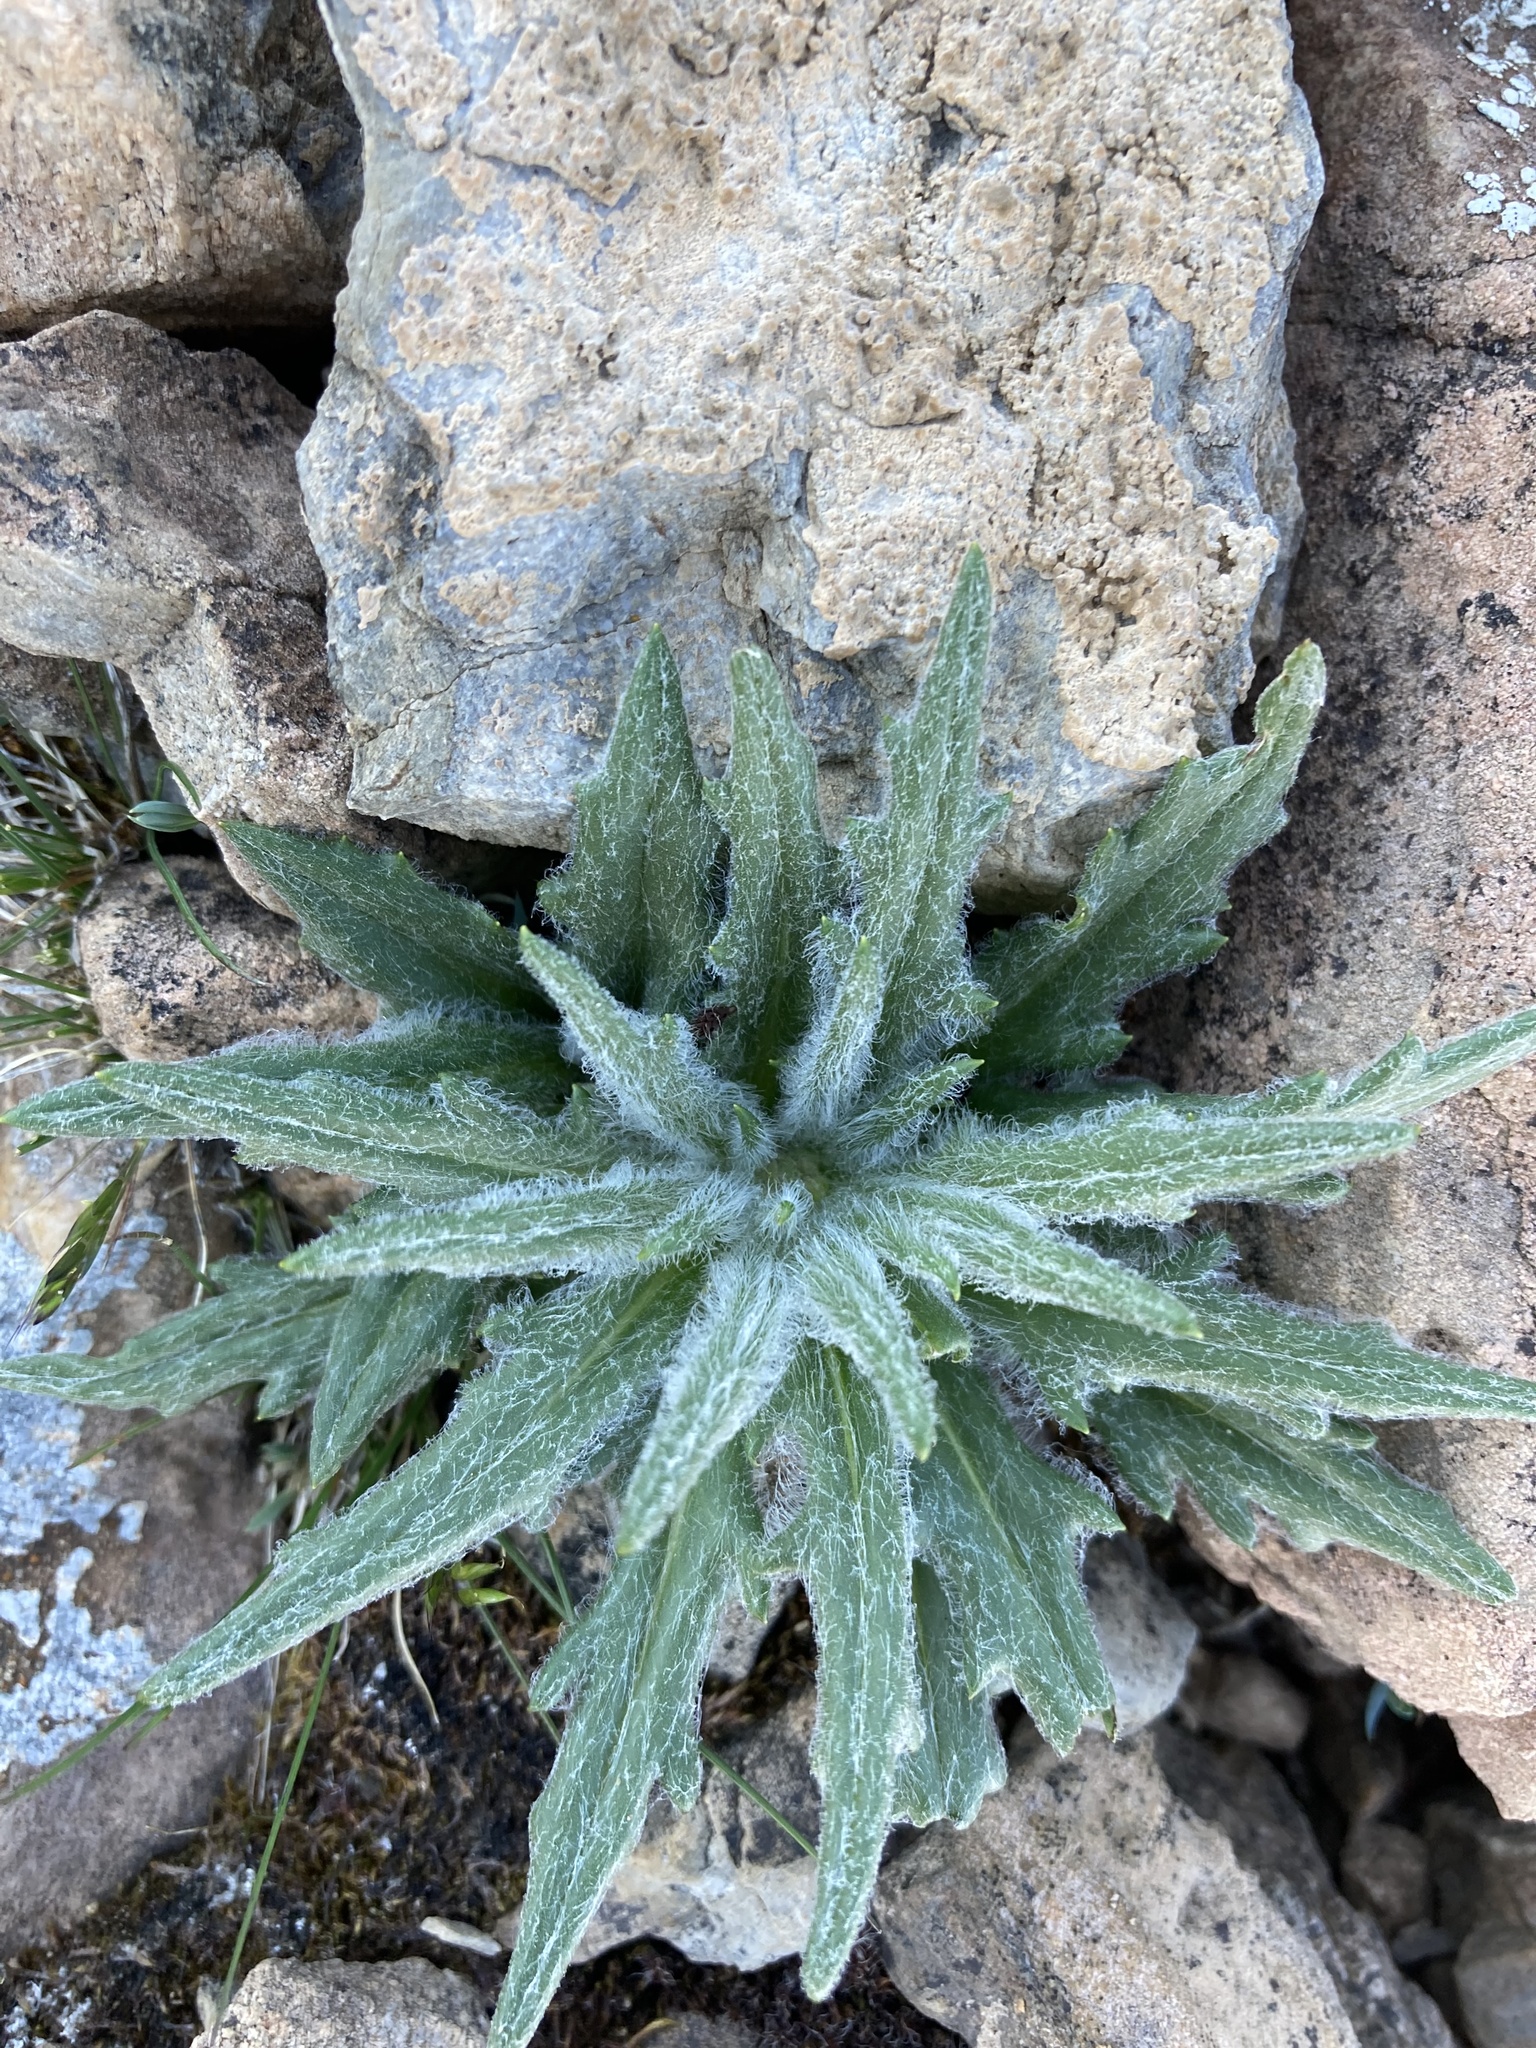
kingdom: Plantae
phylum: Tracheophyta
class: Magnoliopsida
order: Asterales
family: Asteraceae
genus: Saussurea
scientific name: Saussurea nuda
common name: Chaffless saw-wort
